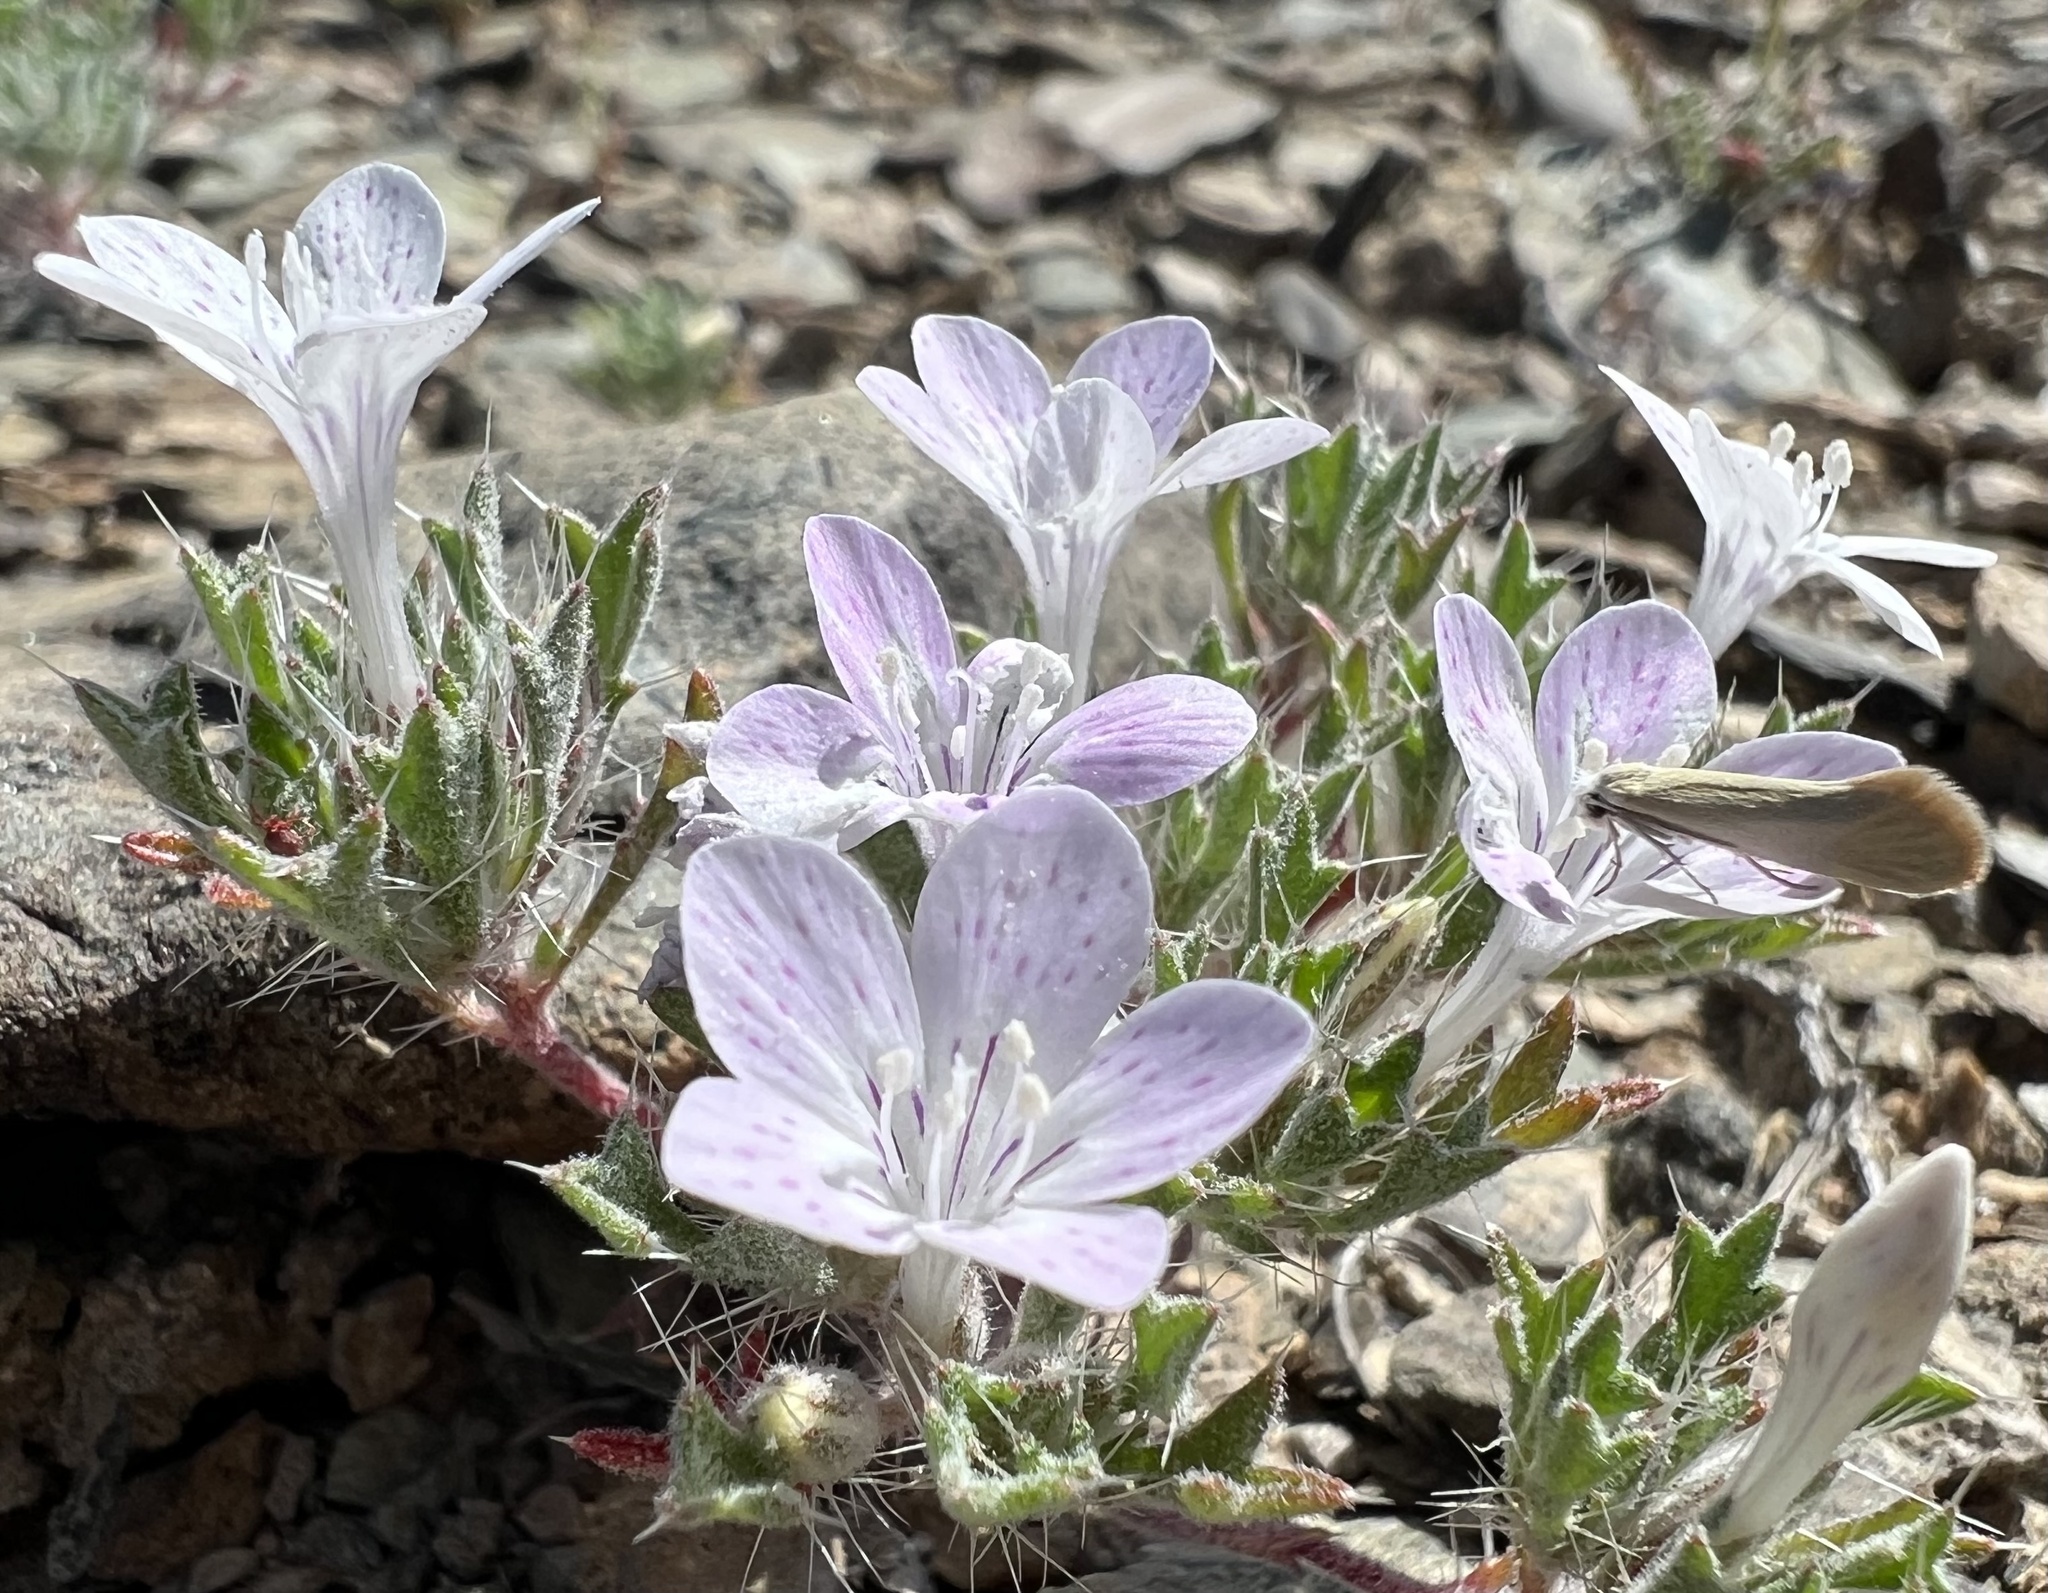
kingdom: Plantae
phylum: Tracheophyta
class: Magnoliopsida
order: Ericales
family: Polemoniaceae
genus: Langloisia
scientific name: Langloisia setosissima
